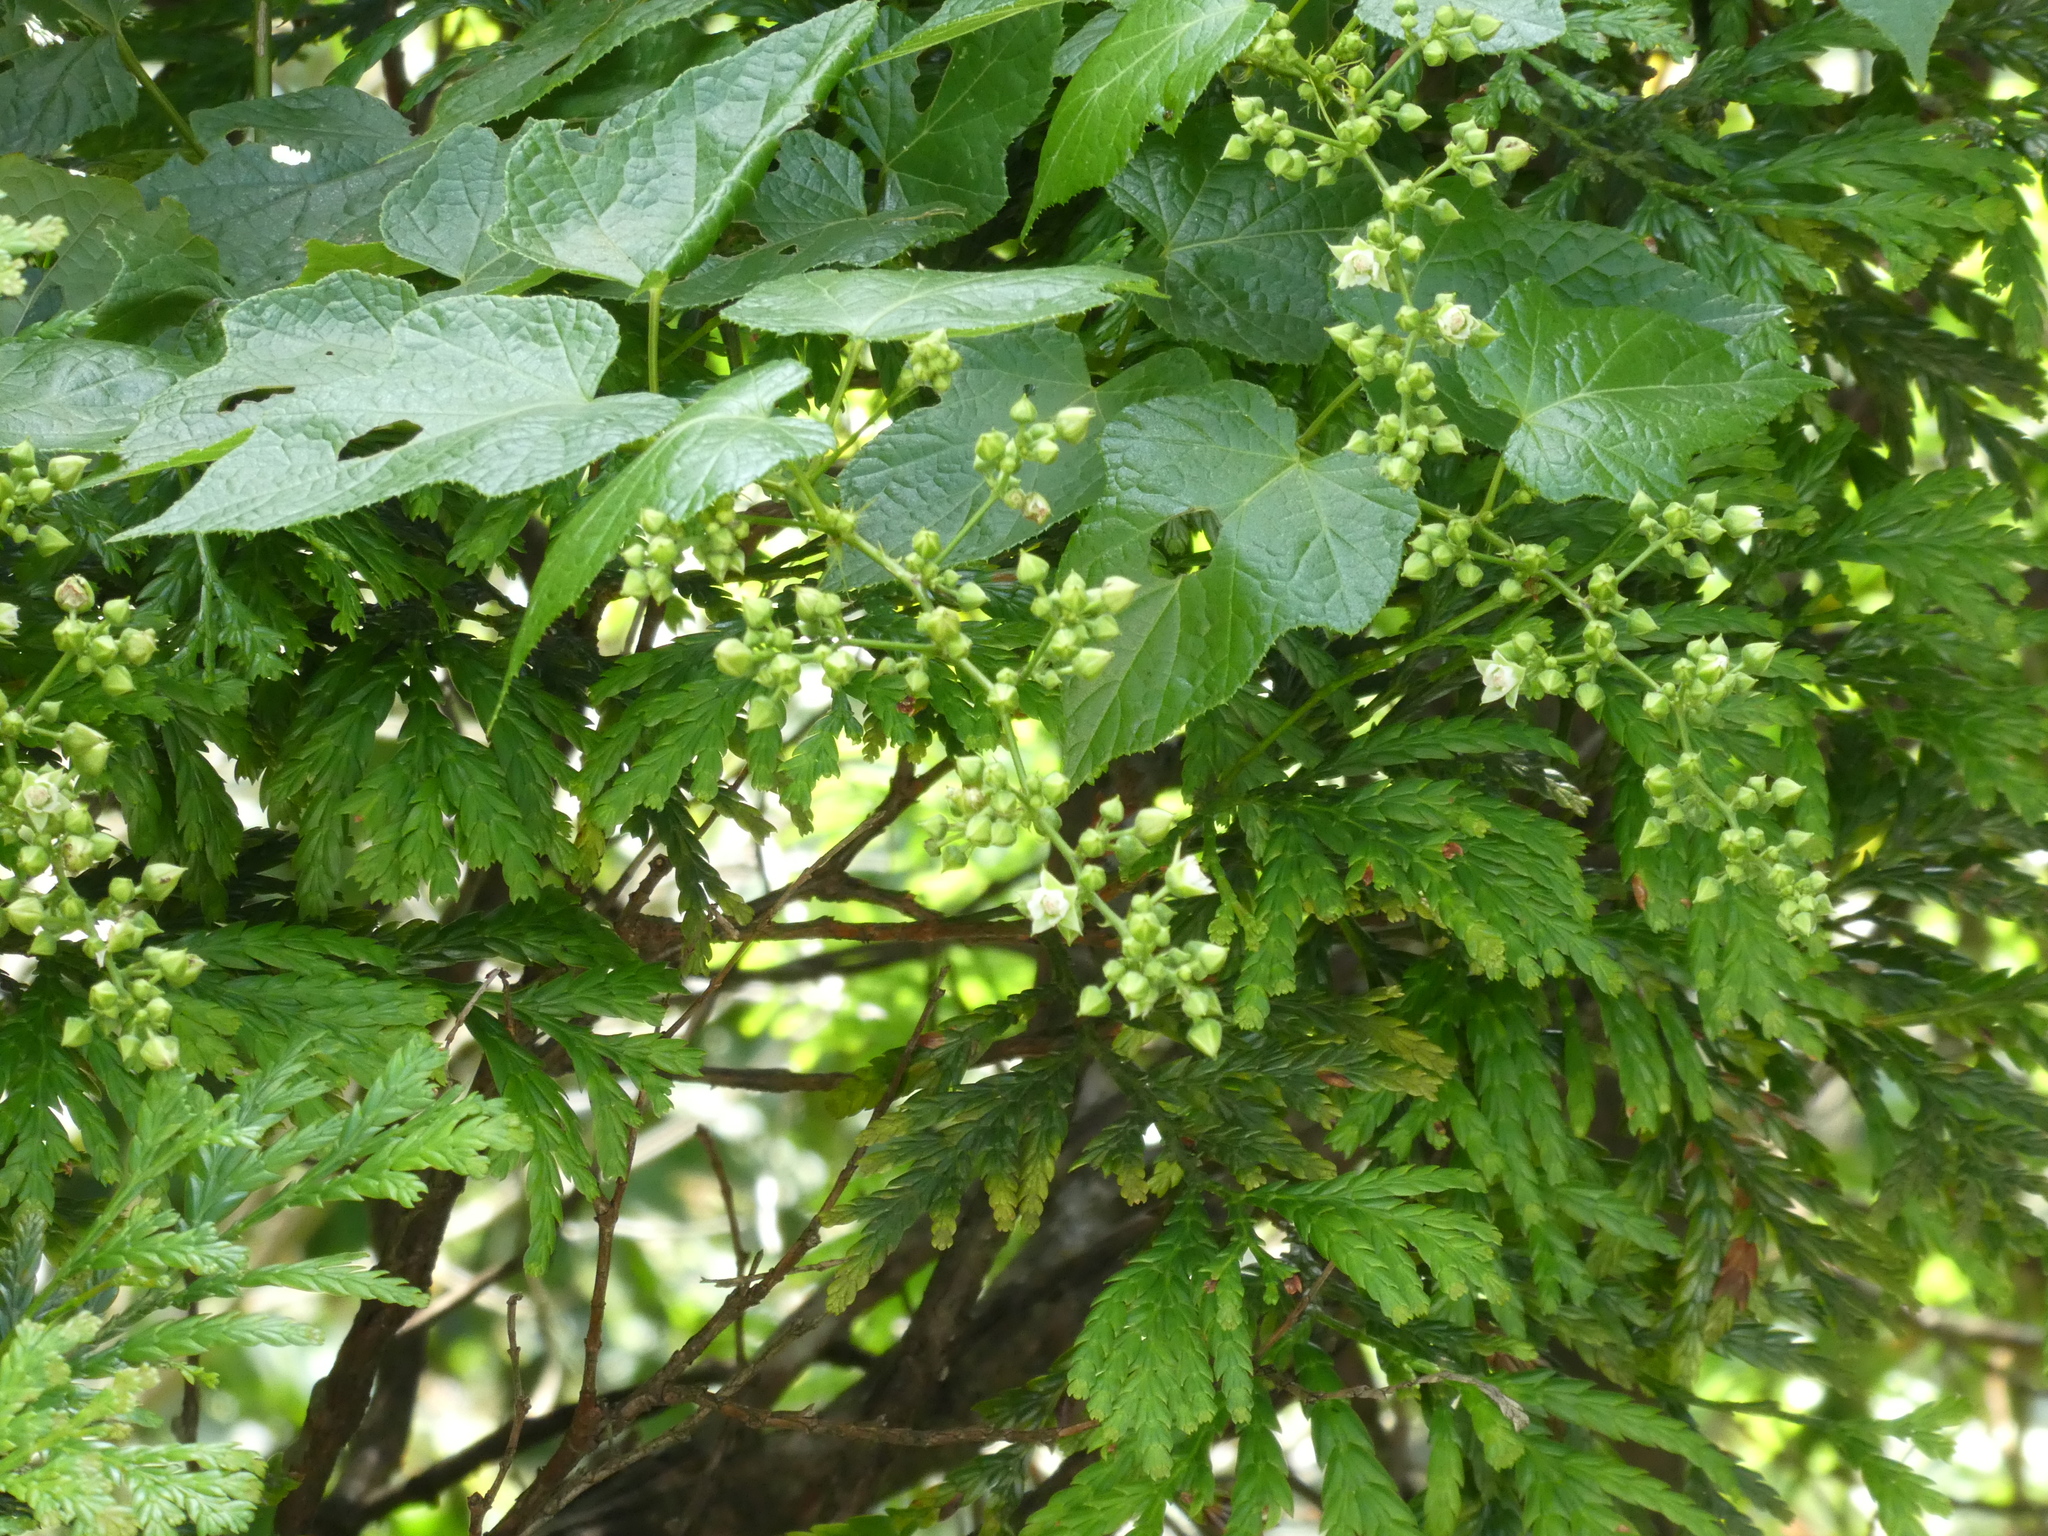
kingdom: Plantae
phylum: Tracheophyta
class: Magnoliopsida
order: Rosales
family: Rosaceae
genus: Rubus
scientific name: Rubus lambertianus
